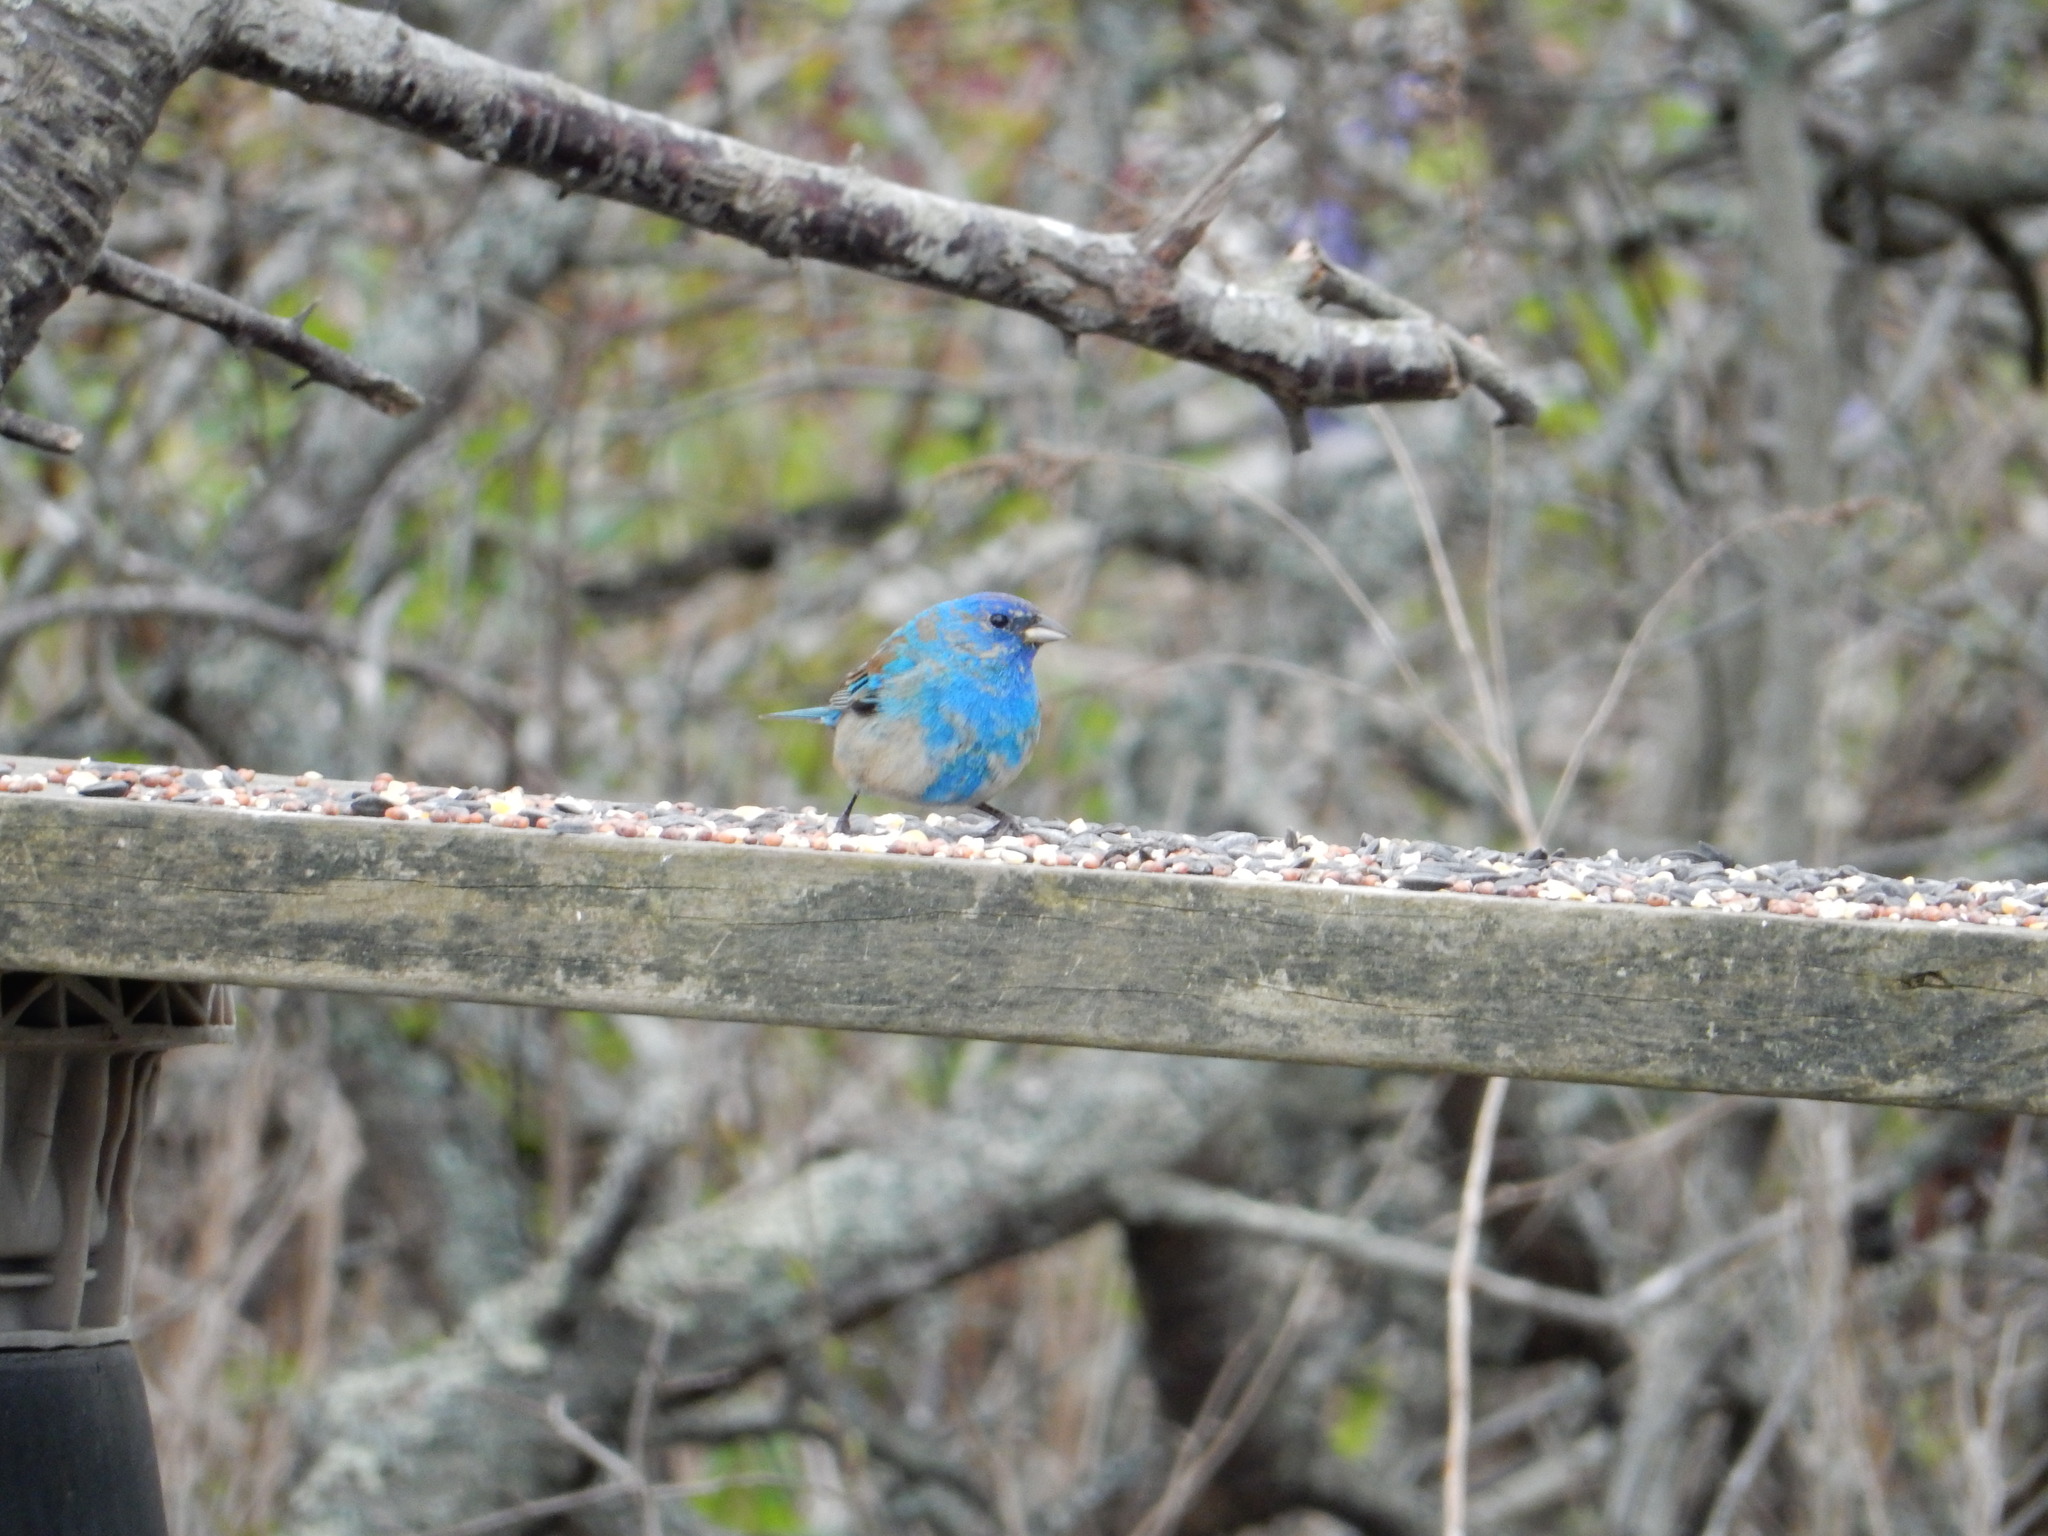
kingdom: Animalia
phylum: Chordata
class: Aves
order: Passeriformes
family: Cardinalidae
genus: Passerina
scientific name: Passerina cyanea
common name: Indigo bunting
